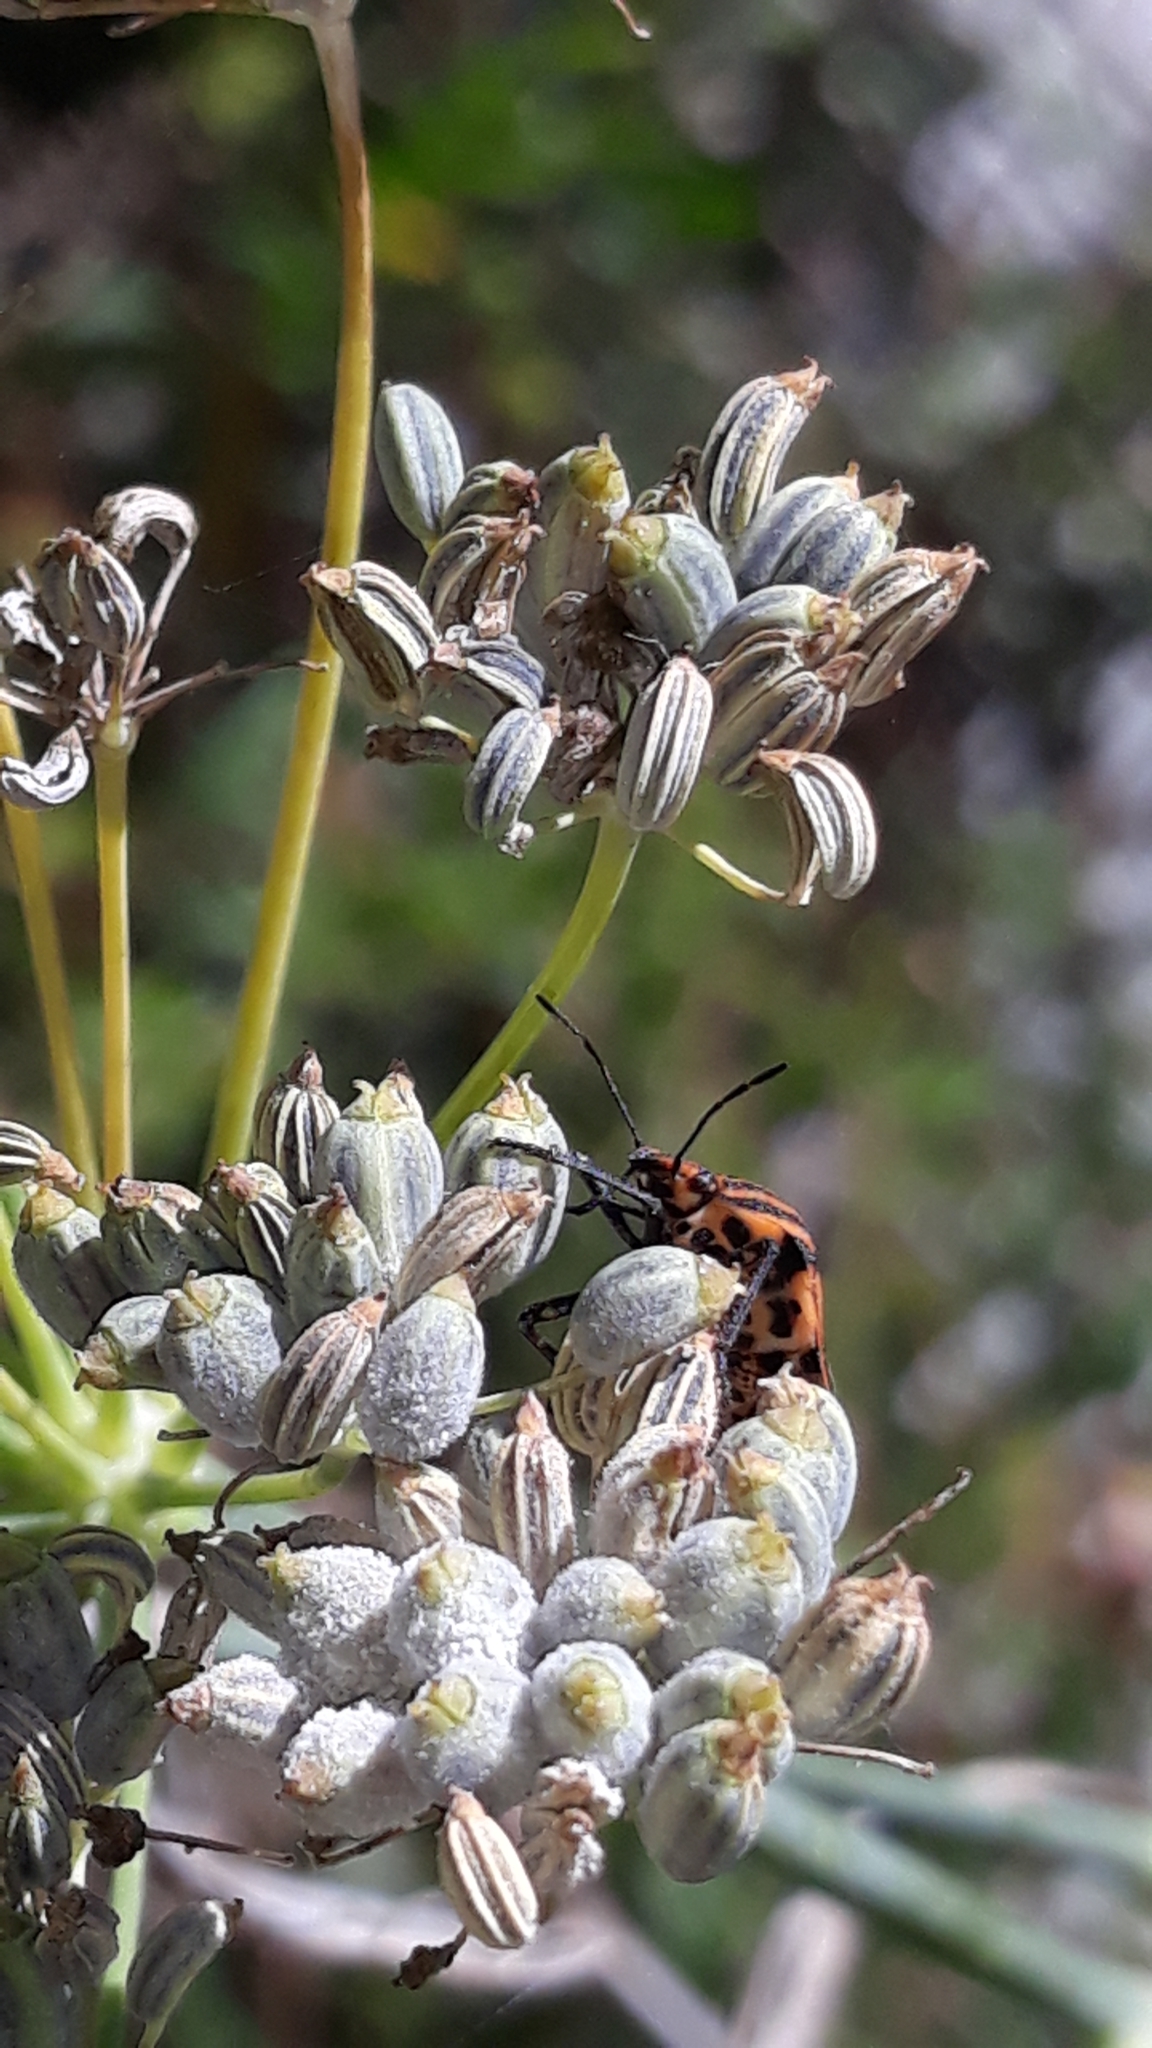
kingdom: Animalia
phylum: Arthropoda
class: Insecta
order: Hemiptera
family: Pentatomidae
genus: Graphosoma
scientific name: Graphosoma italicum
